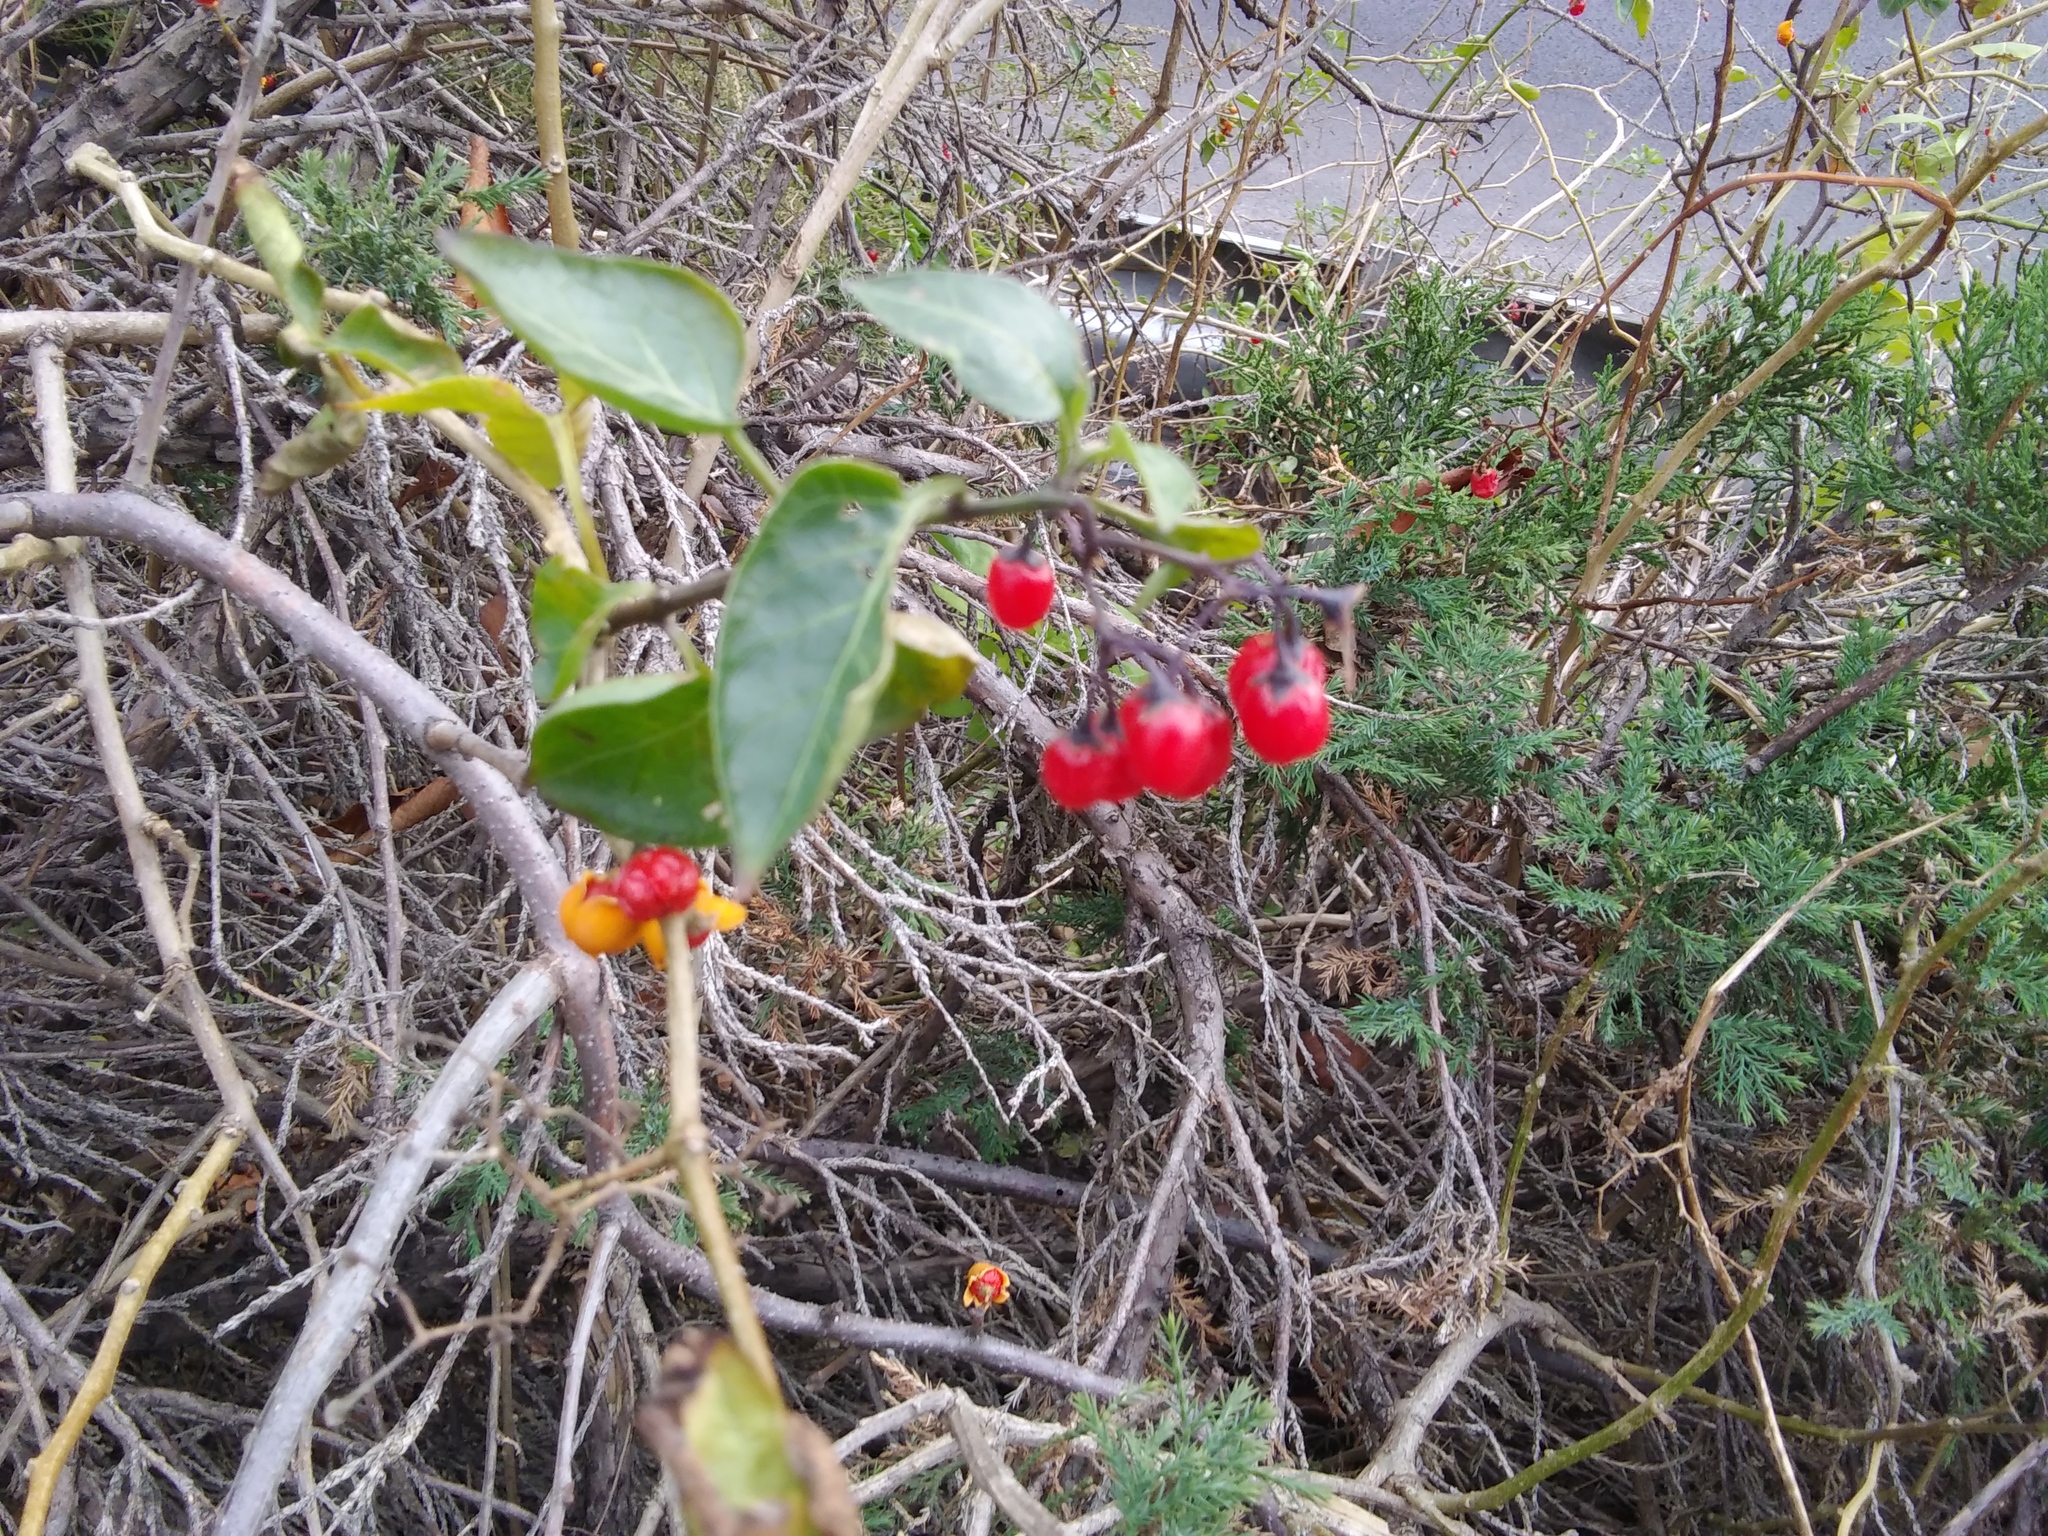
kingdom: Plantae
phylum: Tracheophyta
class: Magnoliopsida
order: Solanales
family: Solanaceae
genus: Solanum
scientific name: Solanum dulcamara
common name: Climbing nightshade
